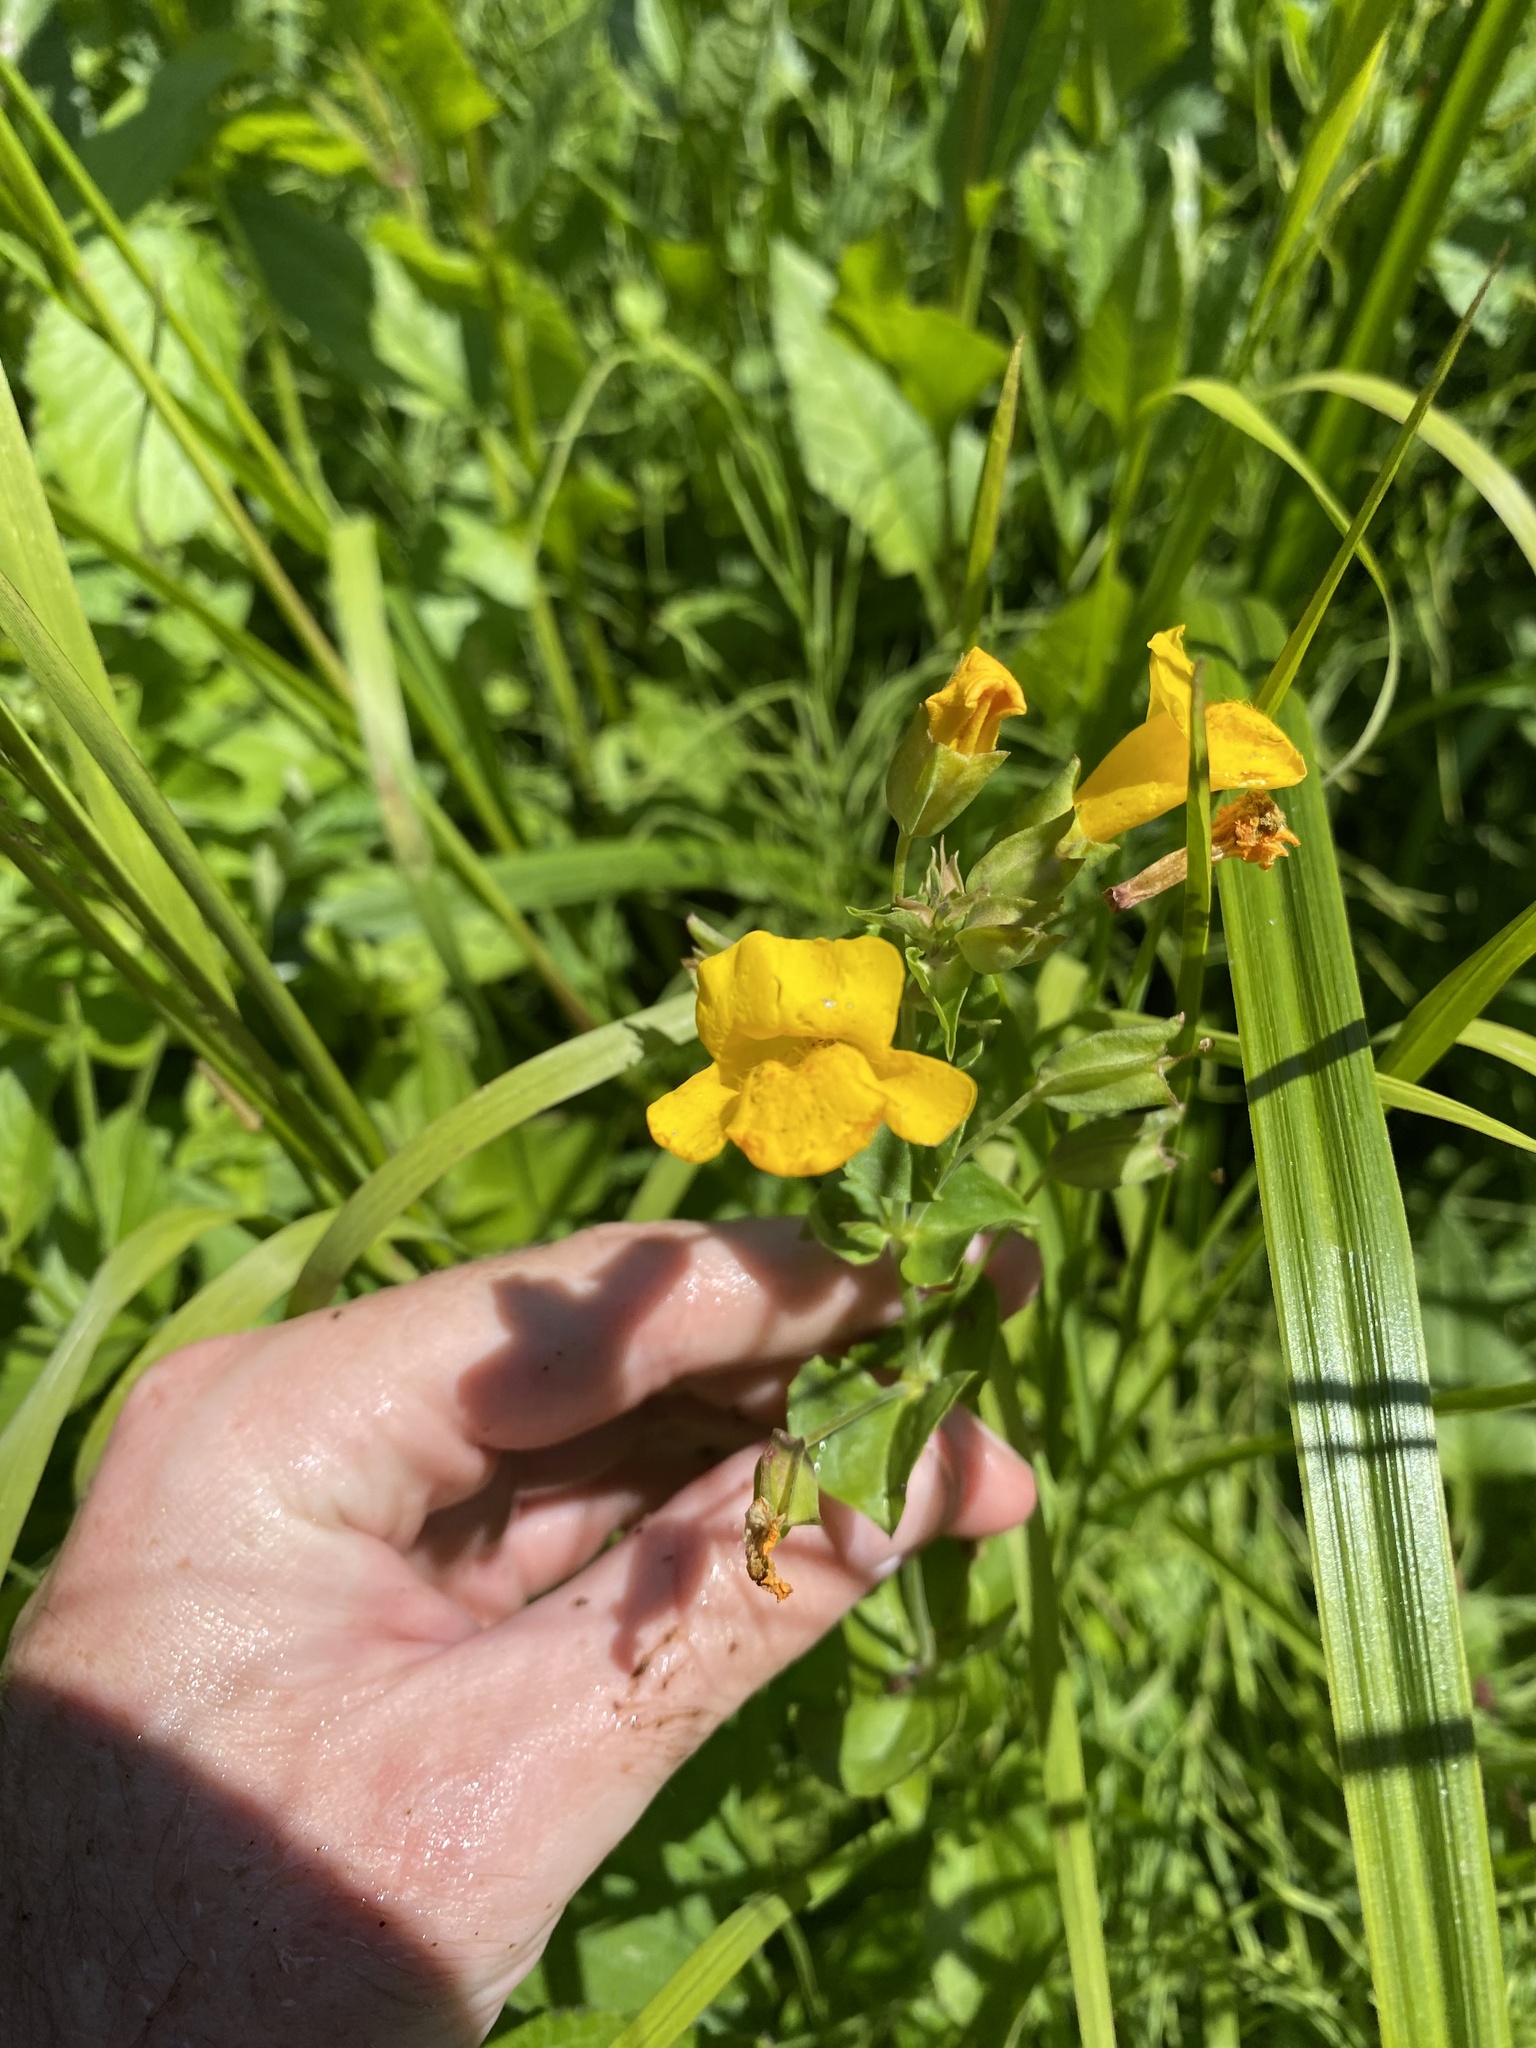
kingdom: Plantae
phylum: Tracheophyta
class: Magnoliopsida
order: Lamiales
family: Phrymaceae
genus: Erythranthe
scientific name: Erythranthe decora
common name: Mannered monkeyflower
